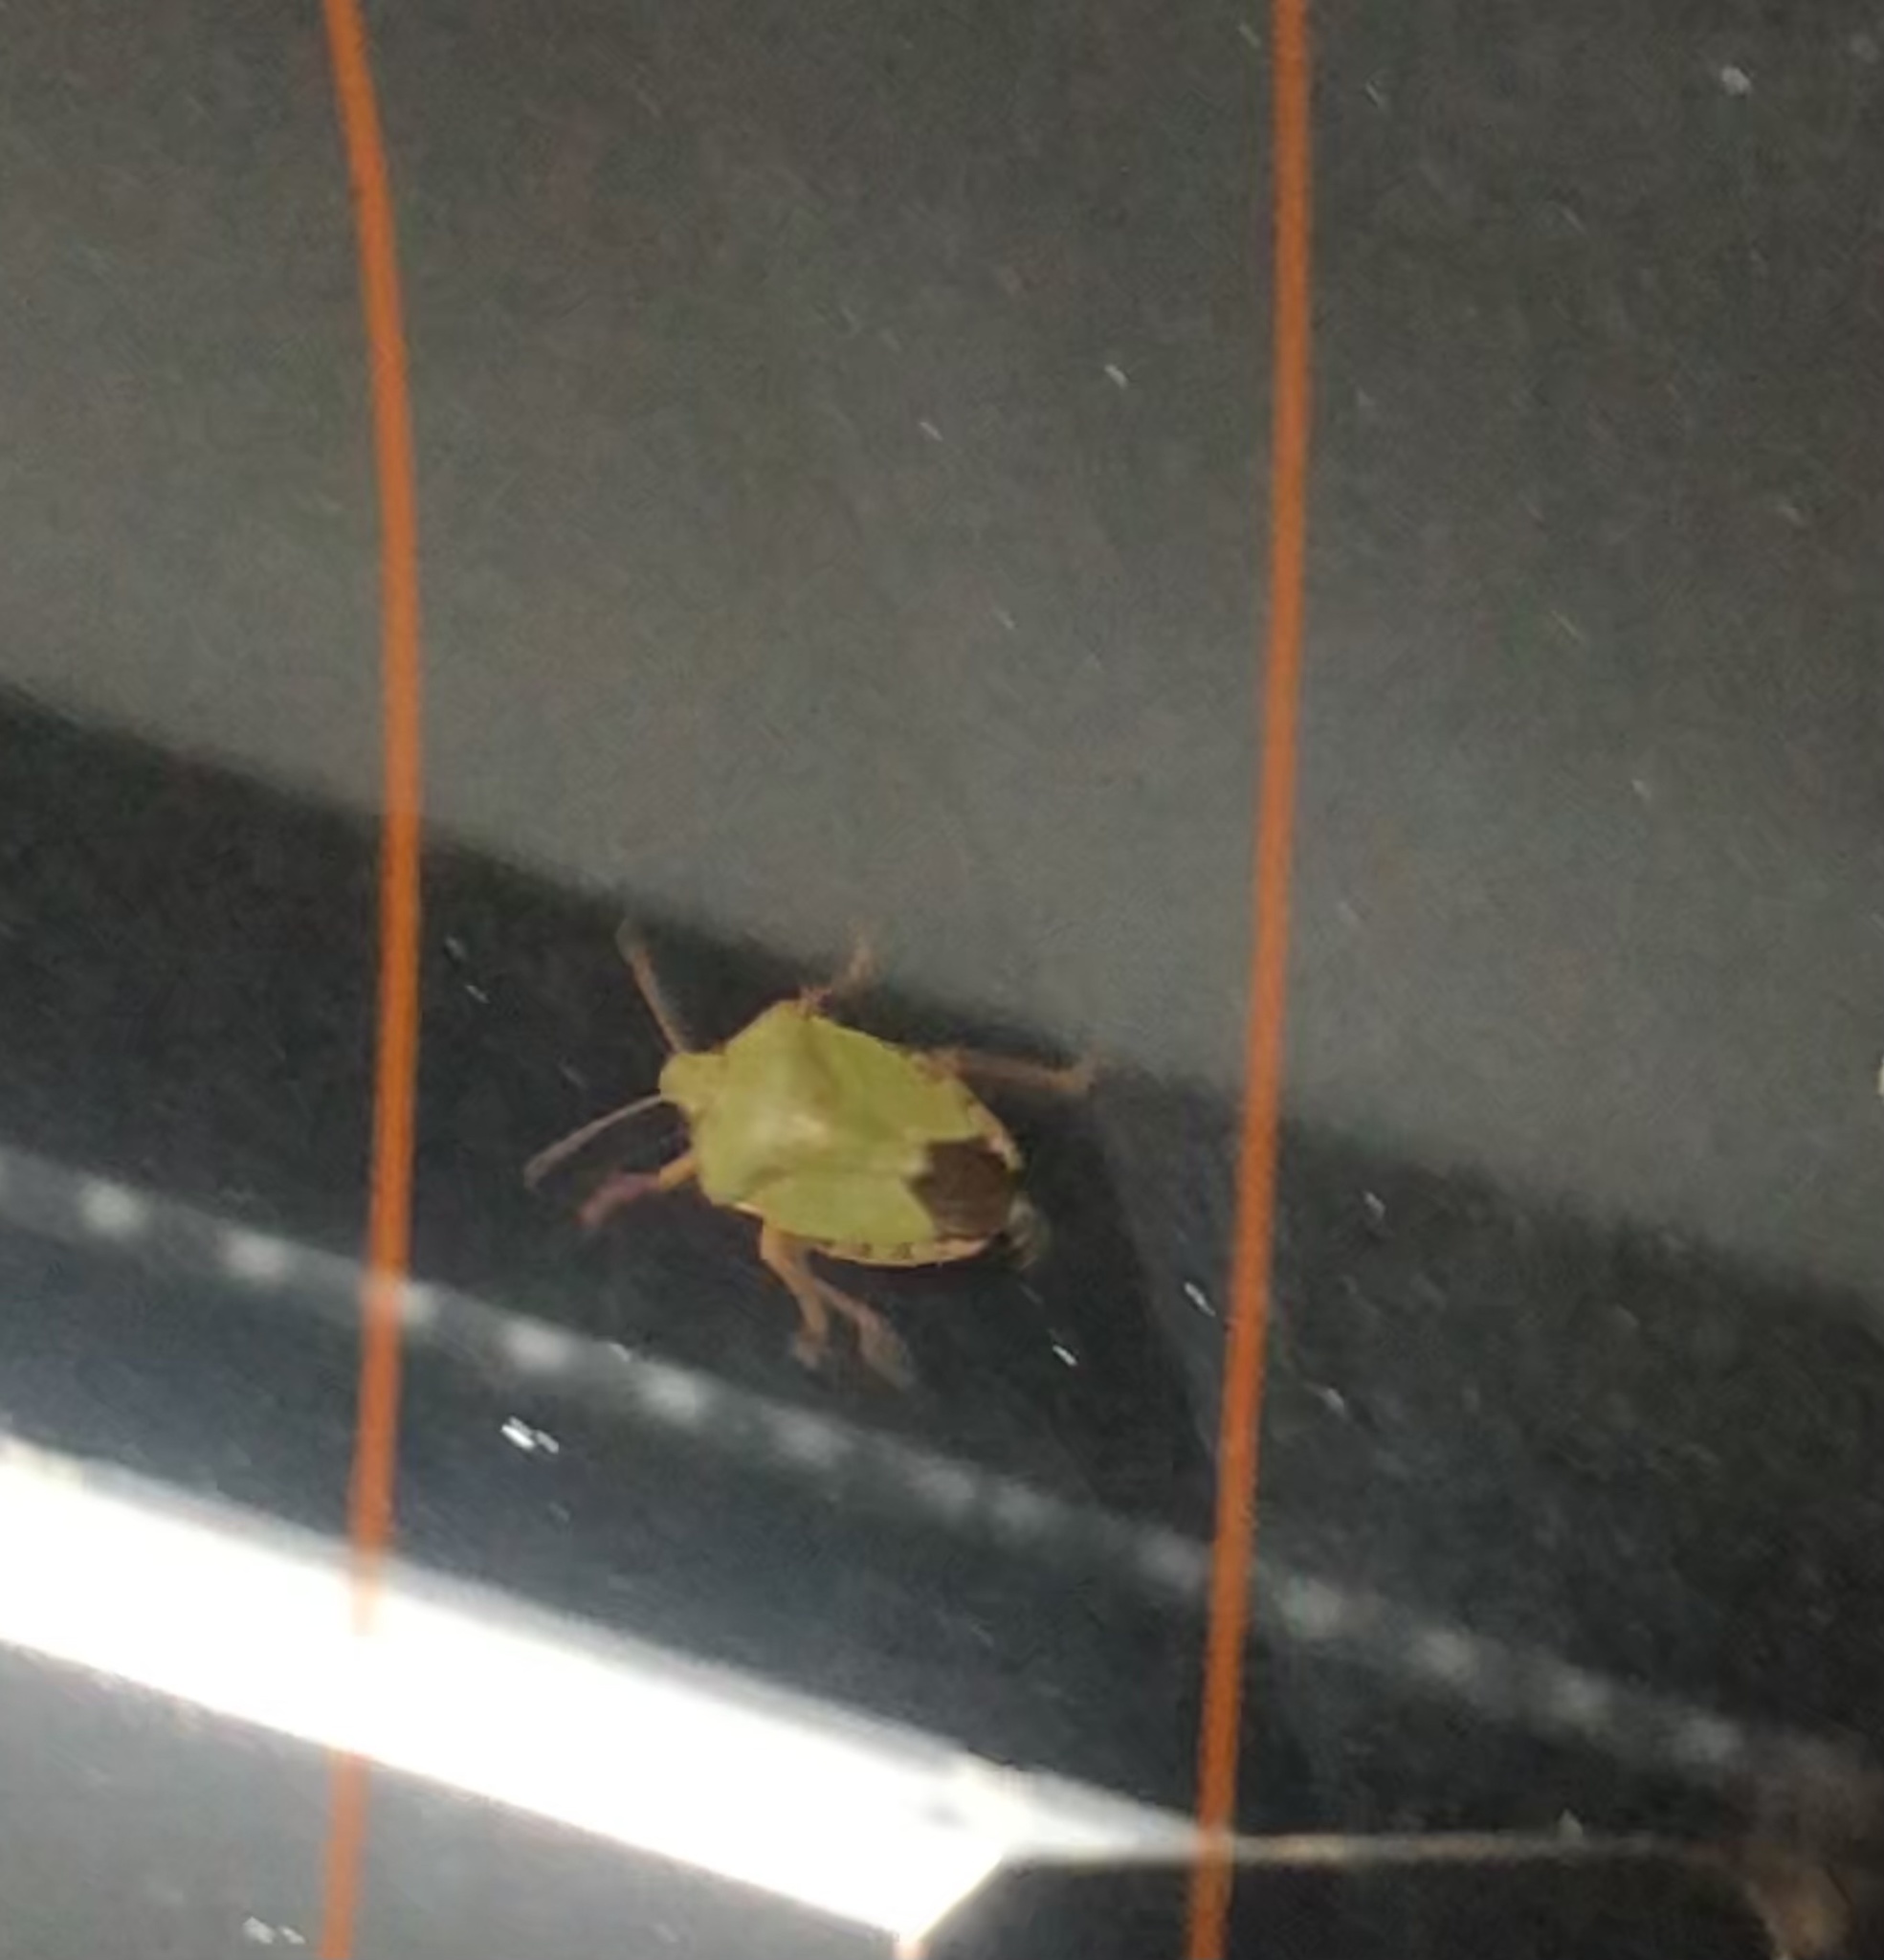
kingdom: Animalia
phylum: Arthropoda
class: Insecta
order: Hemiptera
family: Pentatomidae
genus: Palomena
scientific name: Palomena prasina
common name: Green shieldbug
